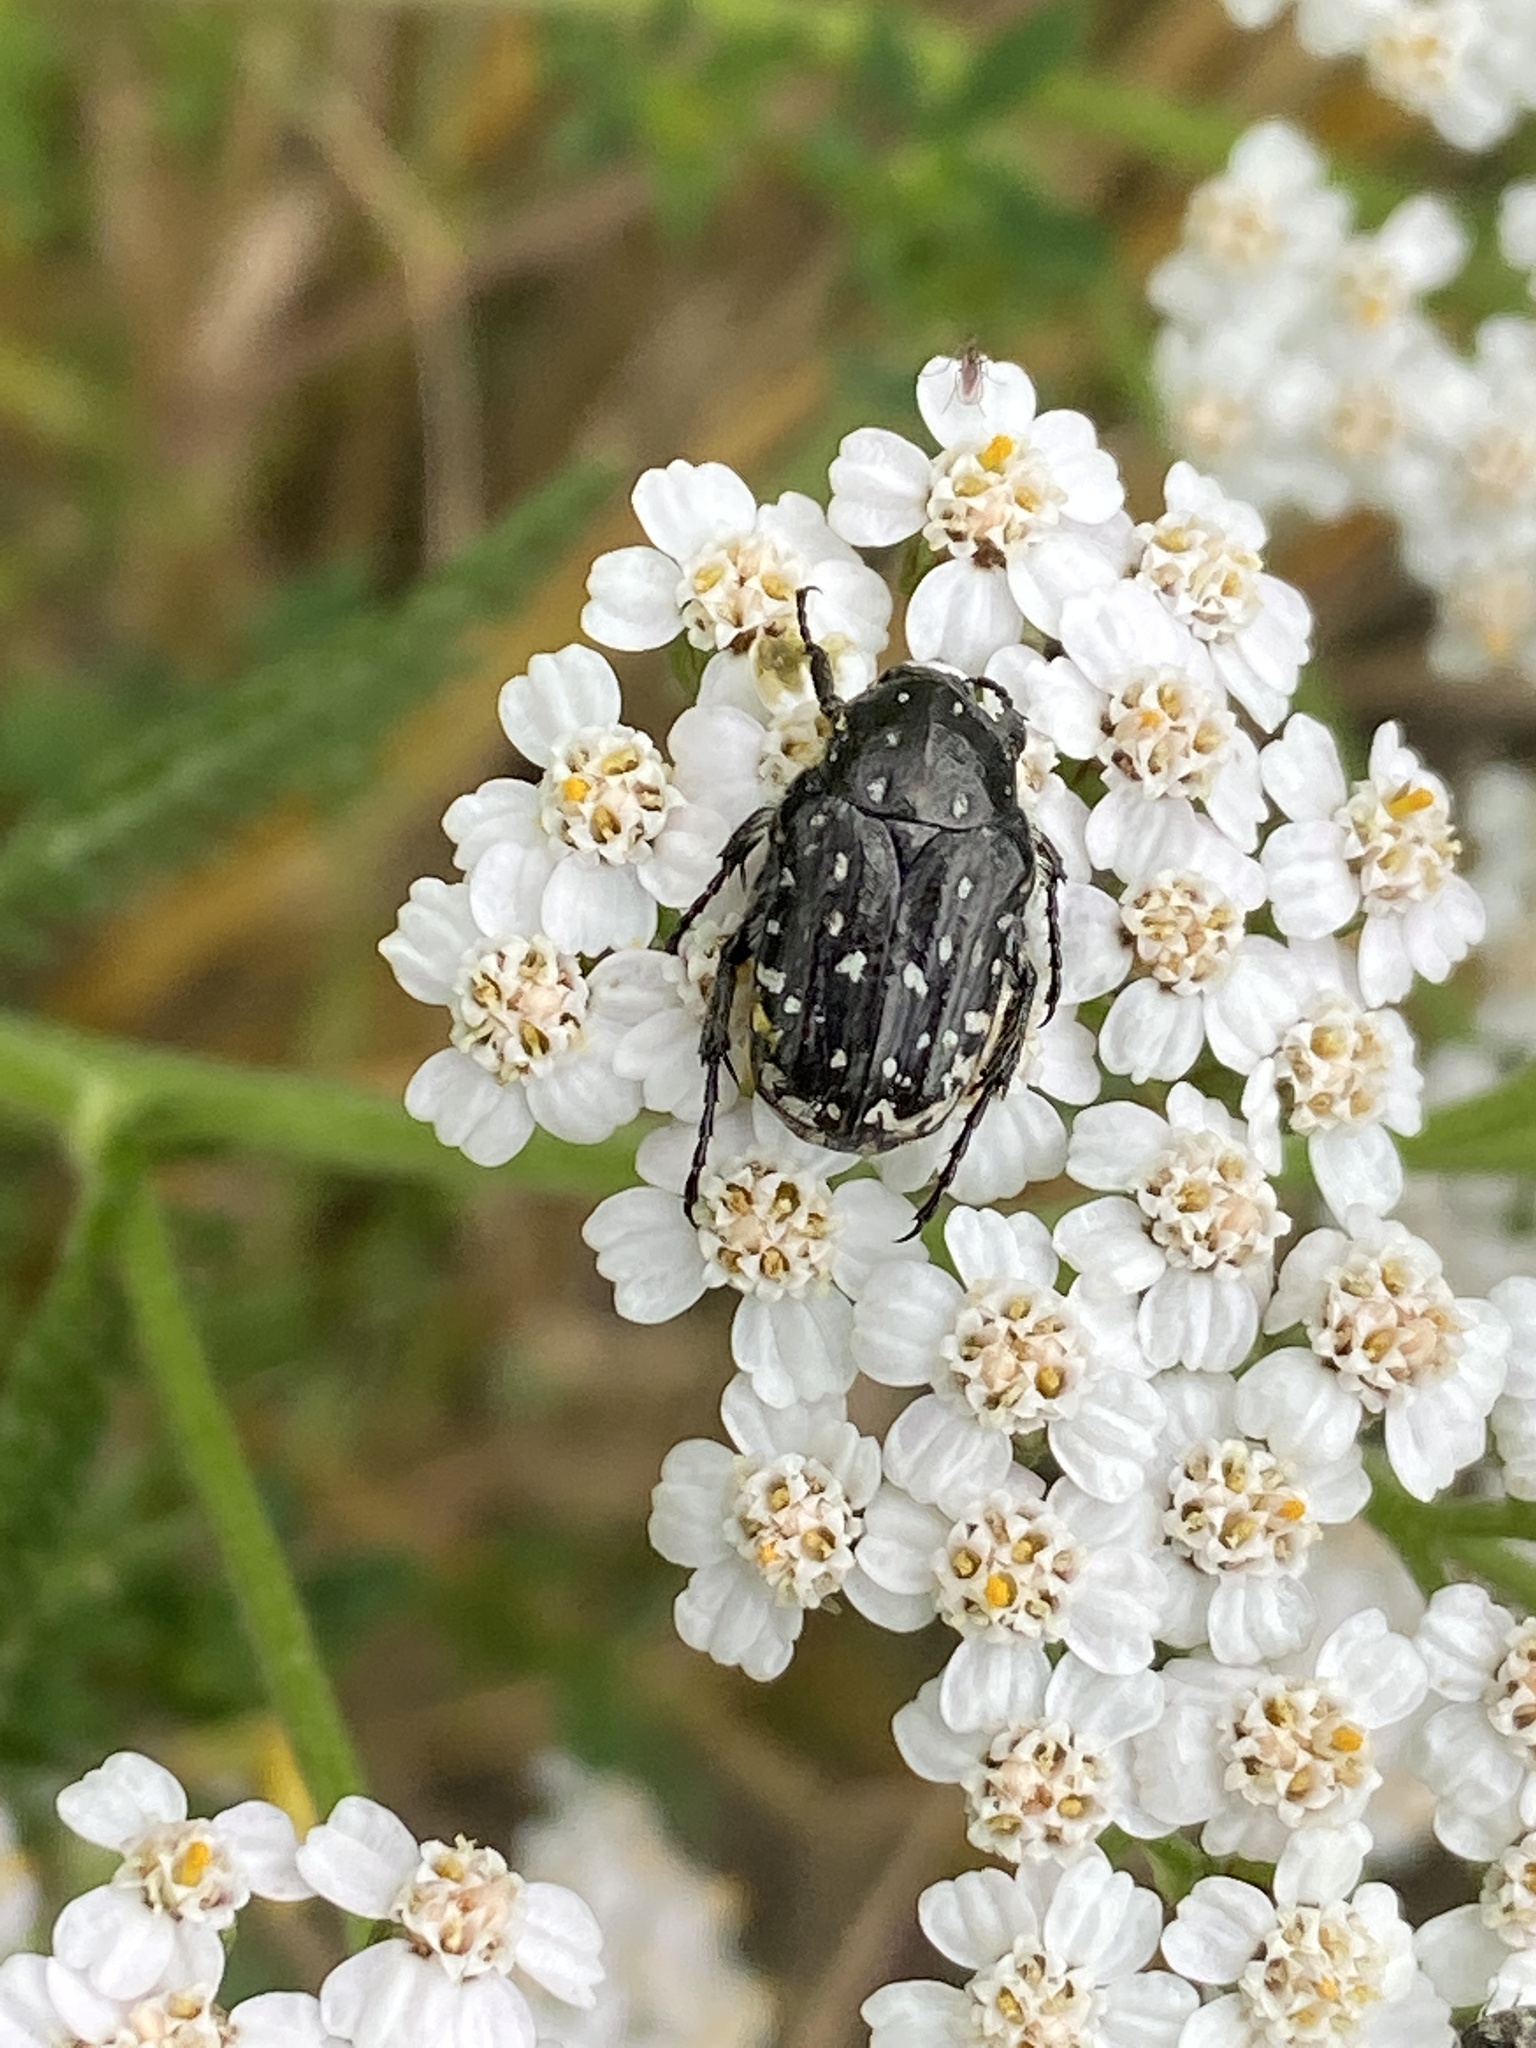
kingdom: Animalia
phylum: Arthropoda
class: Insecta
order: Coleoptera
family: Scarabaeidae
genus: Oxythyrea
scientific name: Oxythyrea funesta
